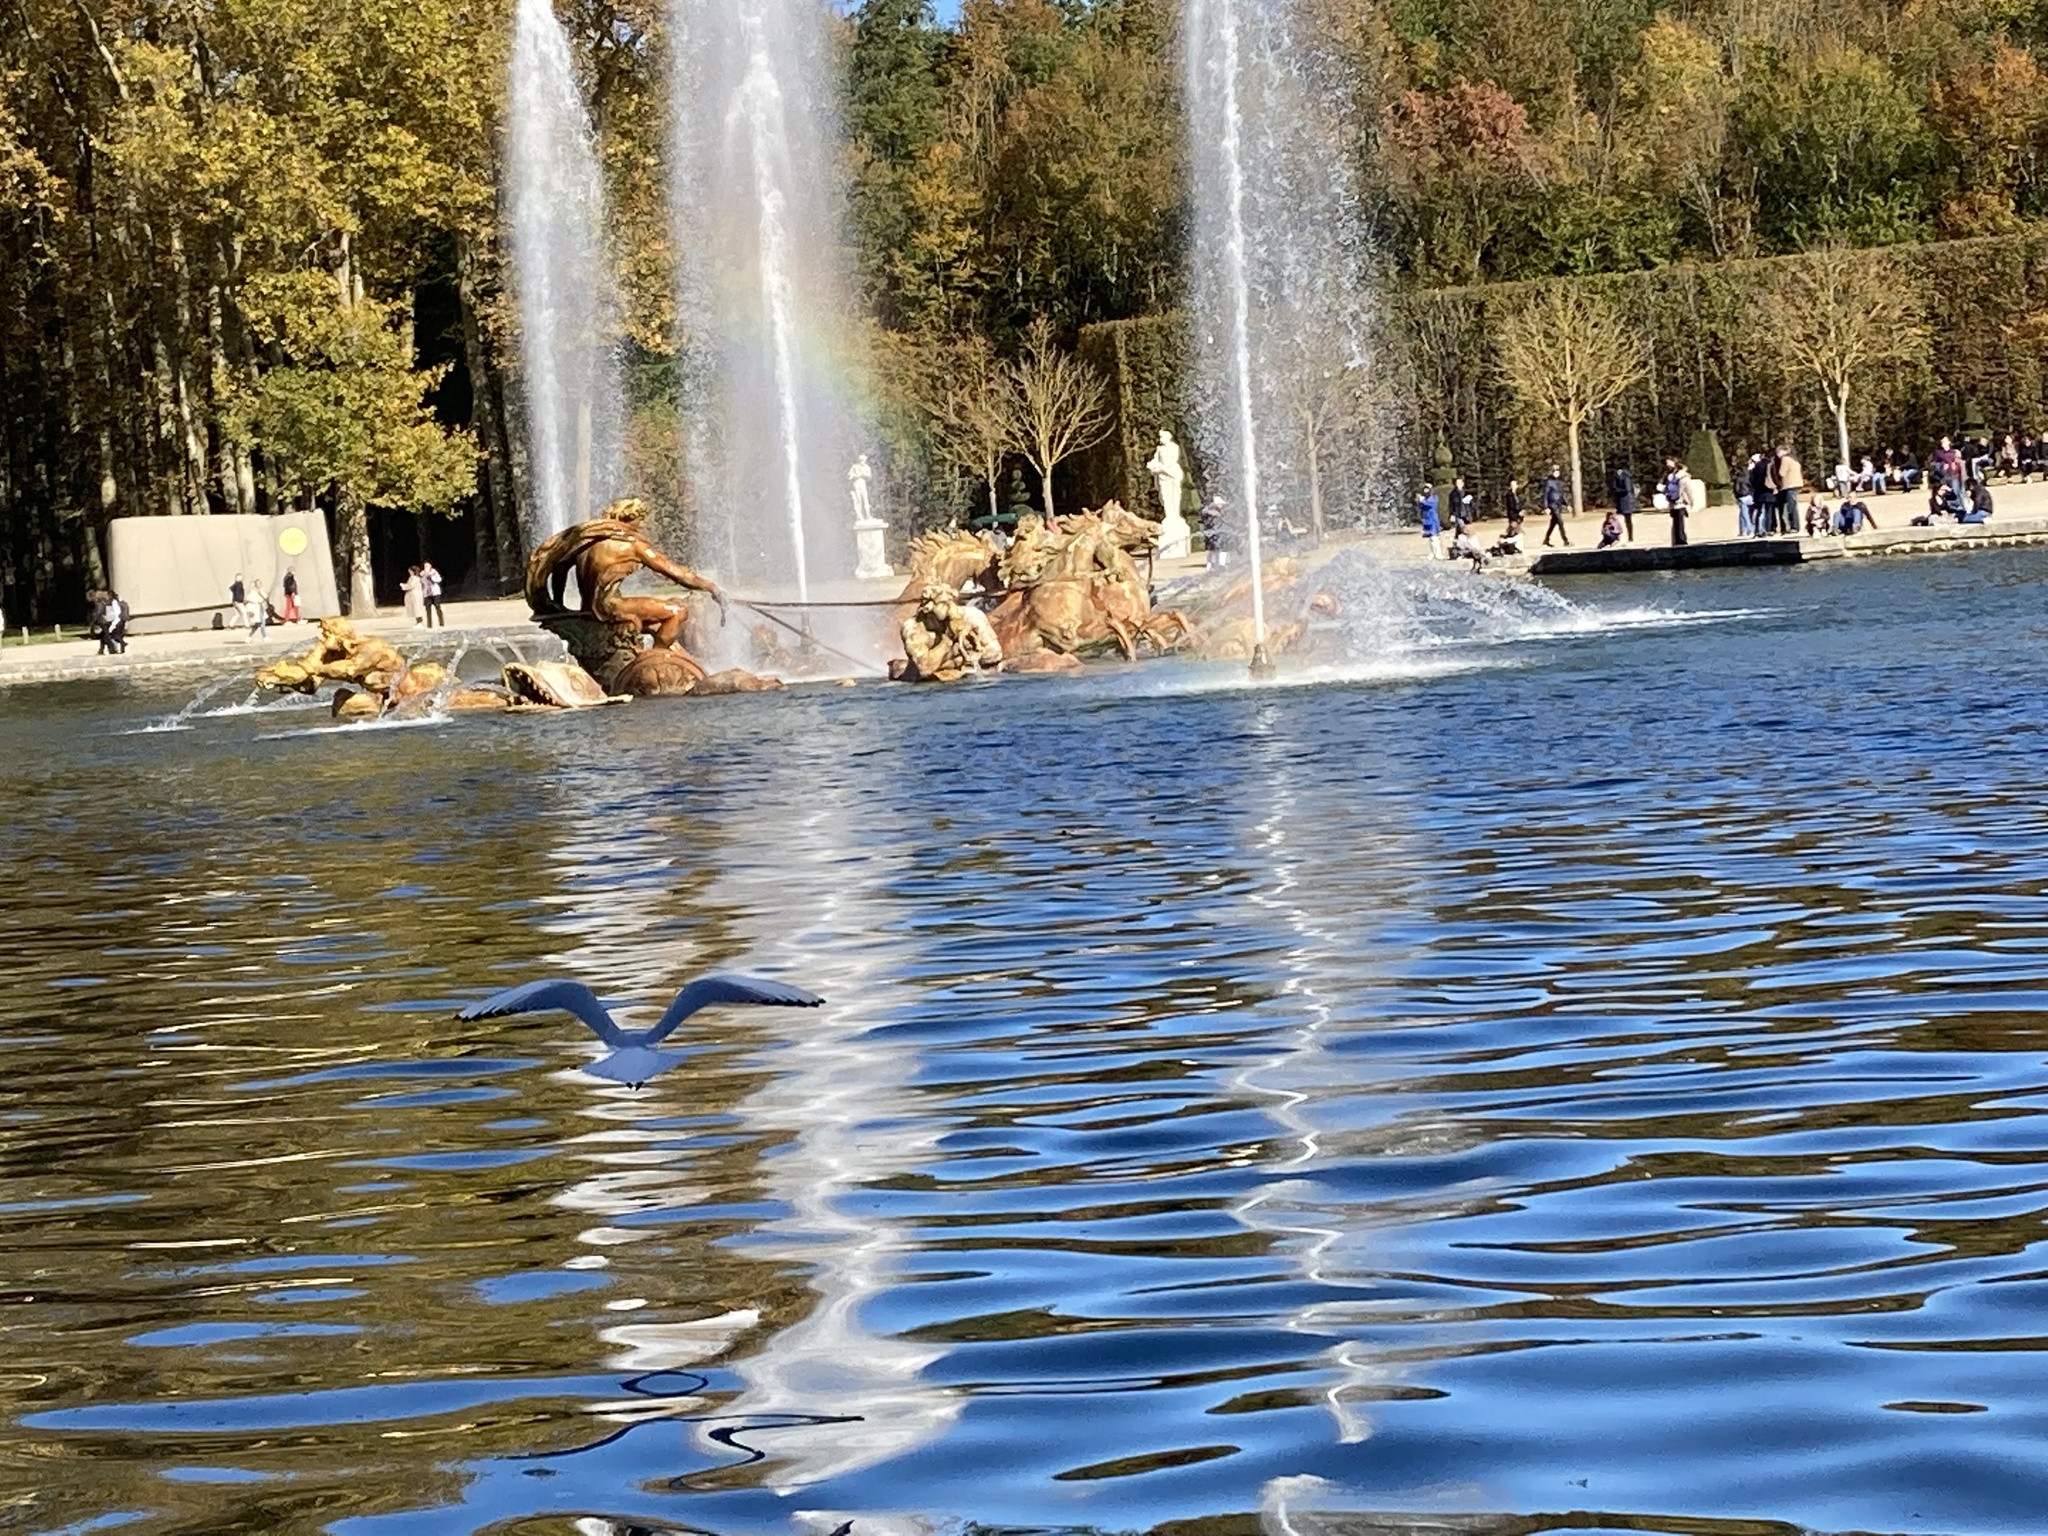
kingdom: Animalia
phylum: Chordata
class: Aves
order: Charadriiformes
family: Laridae
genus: Chroicocephalus
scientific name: Chroicocephalus ridibundus
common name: Black-headed gull
